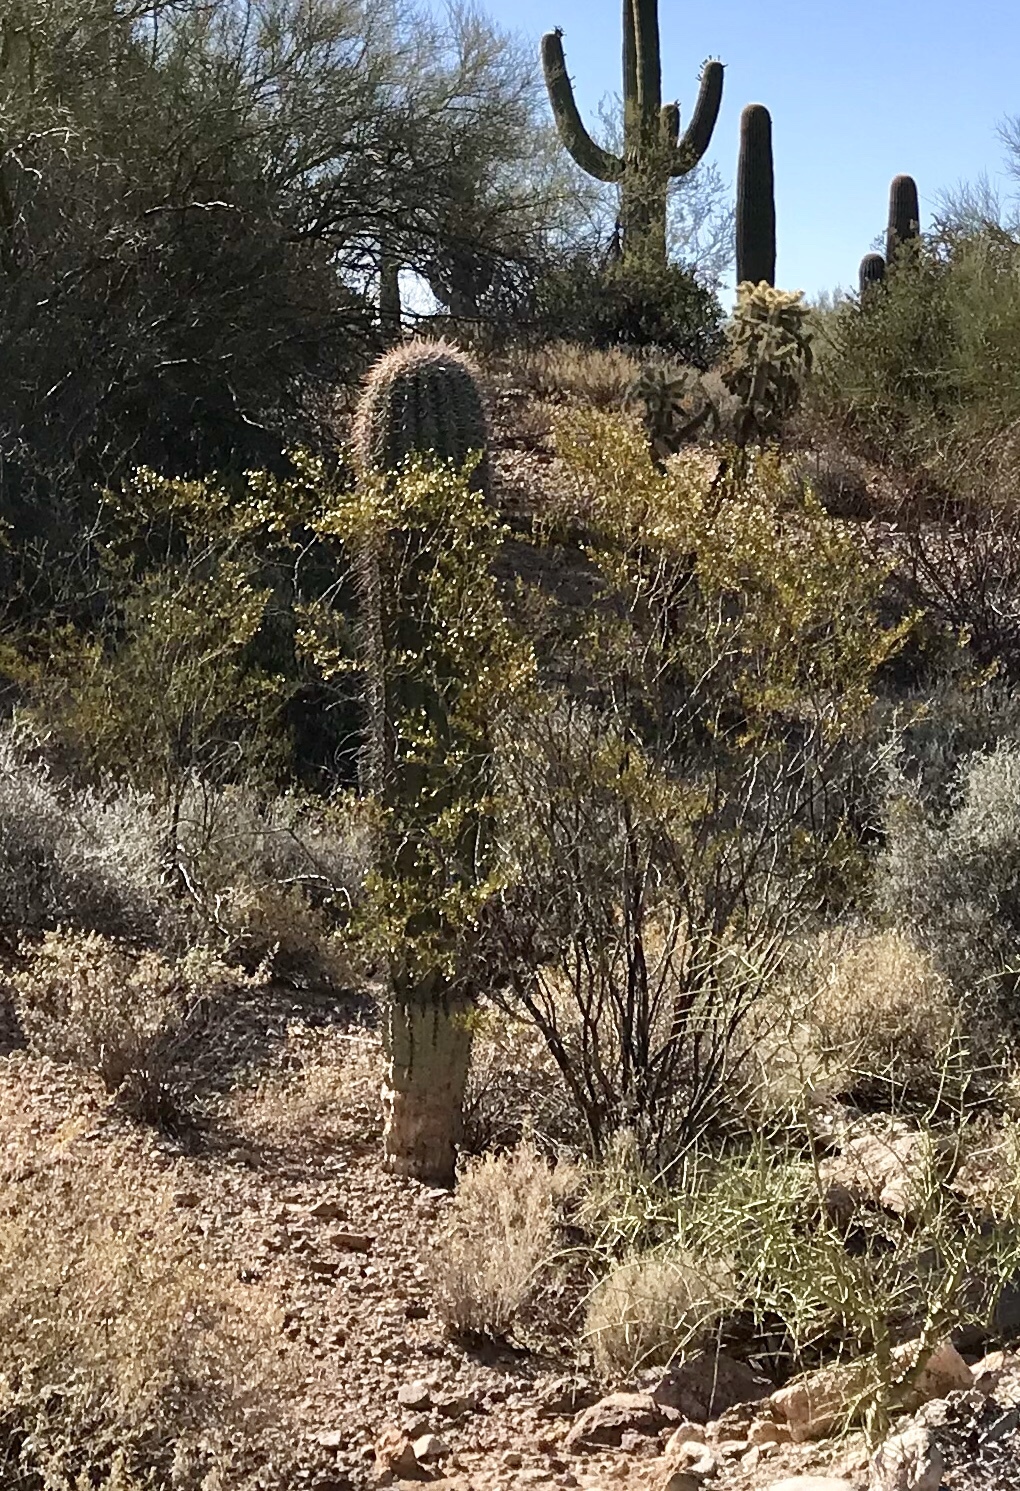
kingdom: Plantae
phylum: Tracheophyta
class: Magnoliopsida
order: Zygophyllales
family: Zygophyllaceae
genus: Larrea
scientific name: Larrea tridentata
